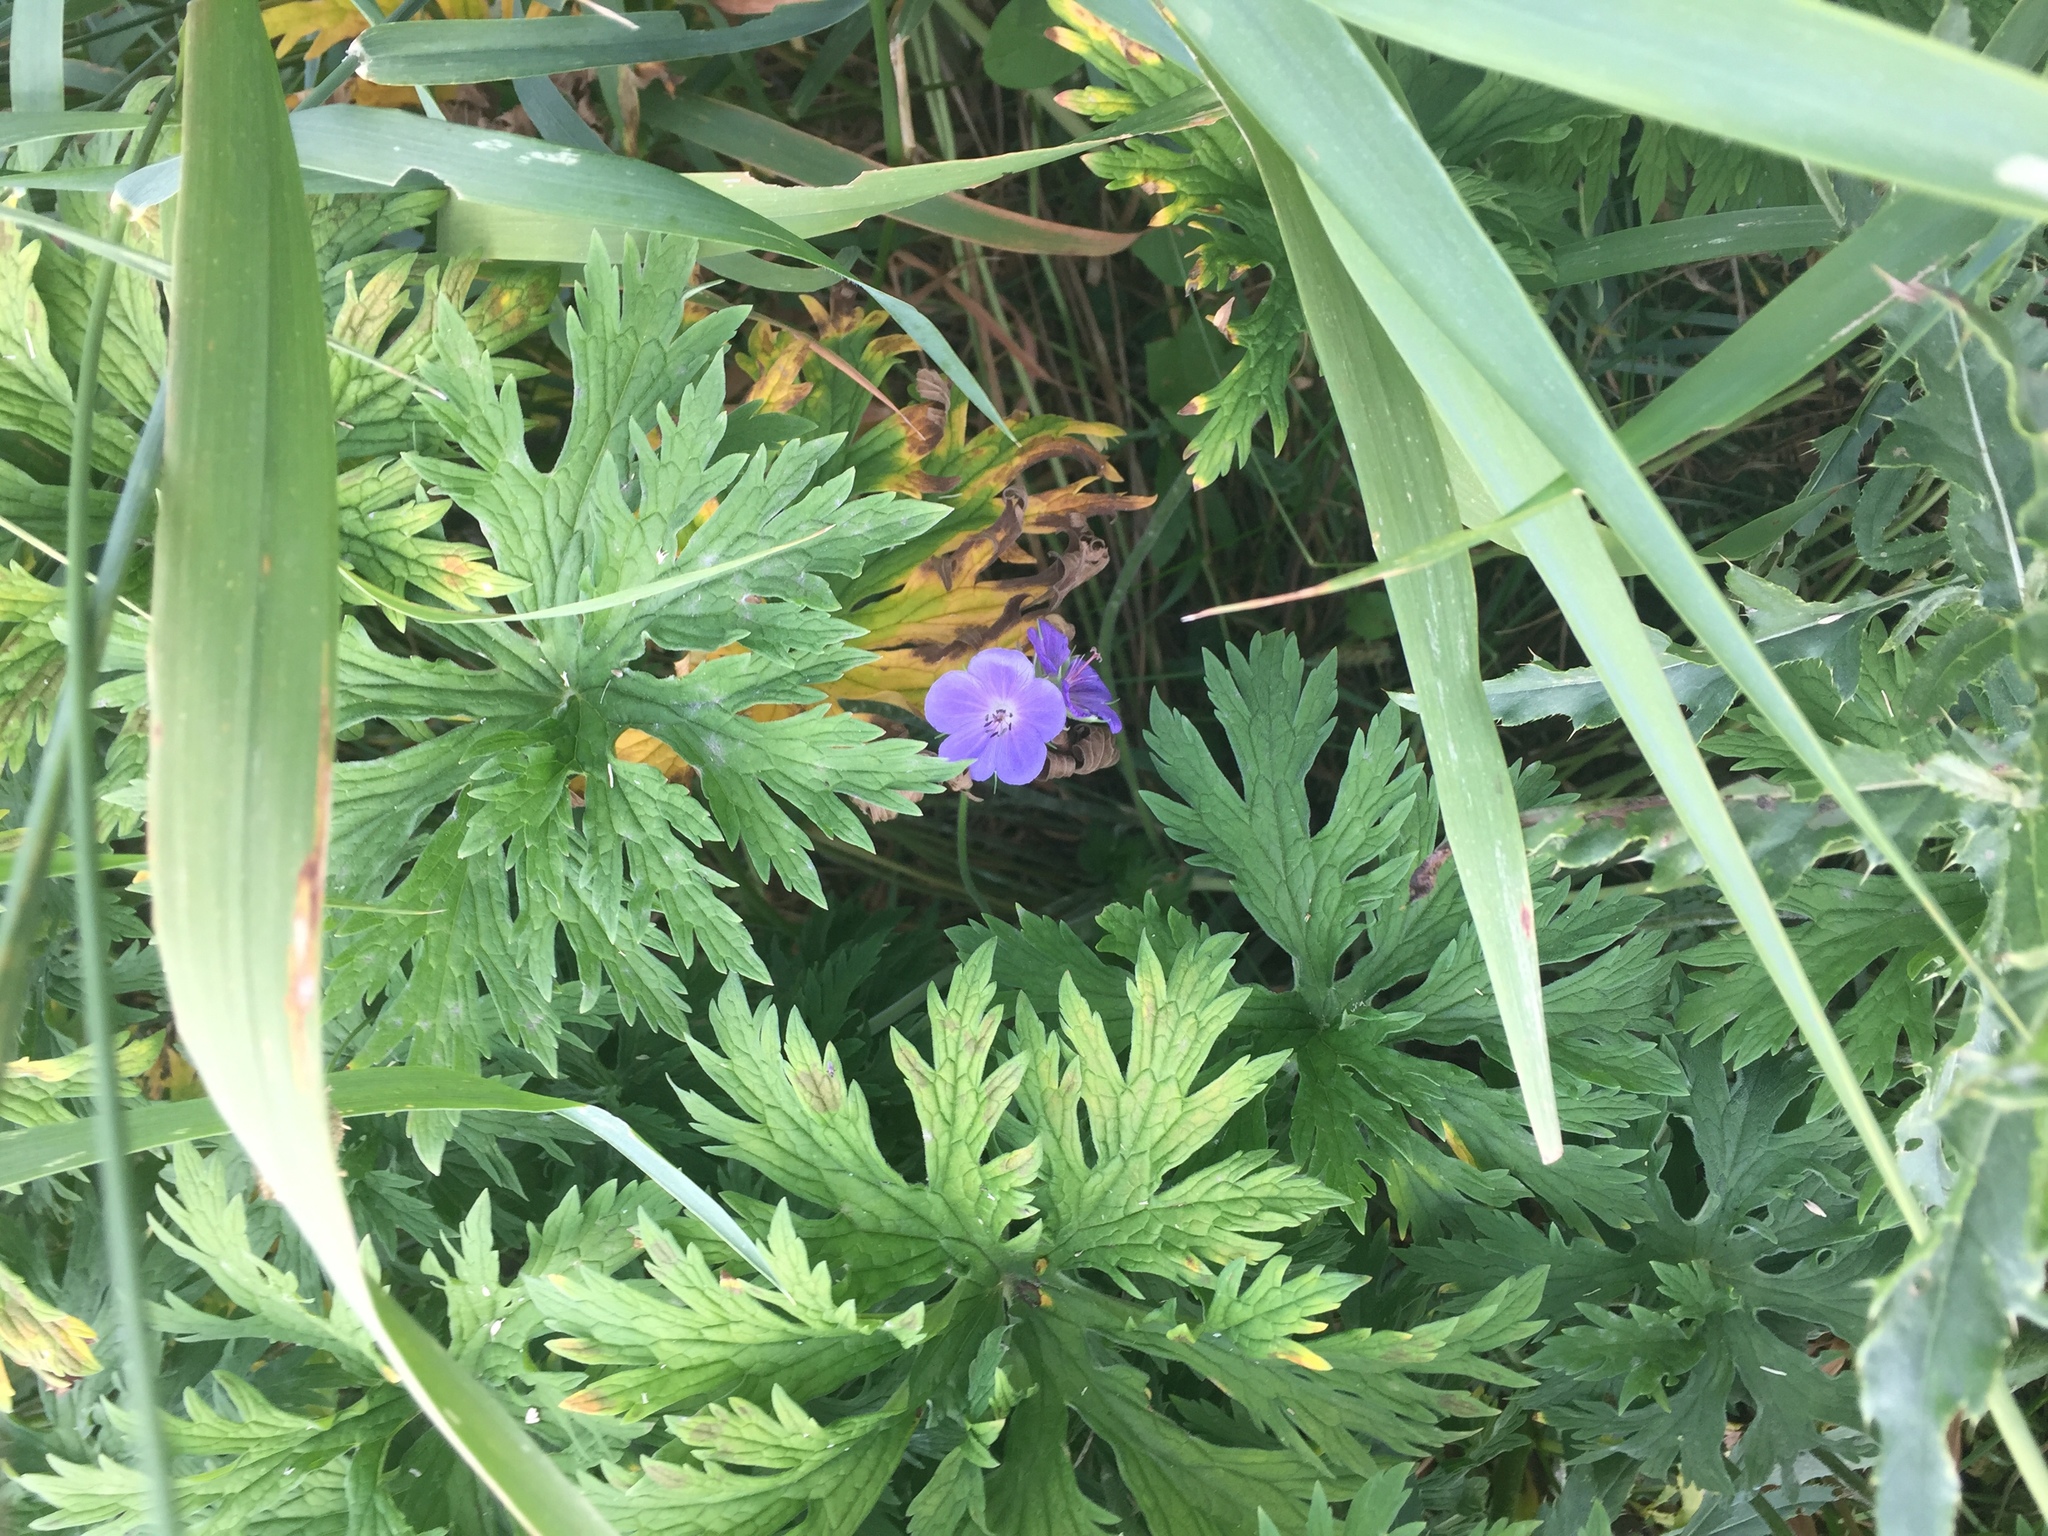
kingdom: Plantae
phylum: Tracheophyta
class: Magnoliopsida
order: Geraniales
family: Geraniaceae
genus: Geranium
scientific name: Geranium pratense
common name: Meadow crane's-bill
